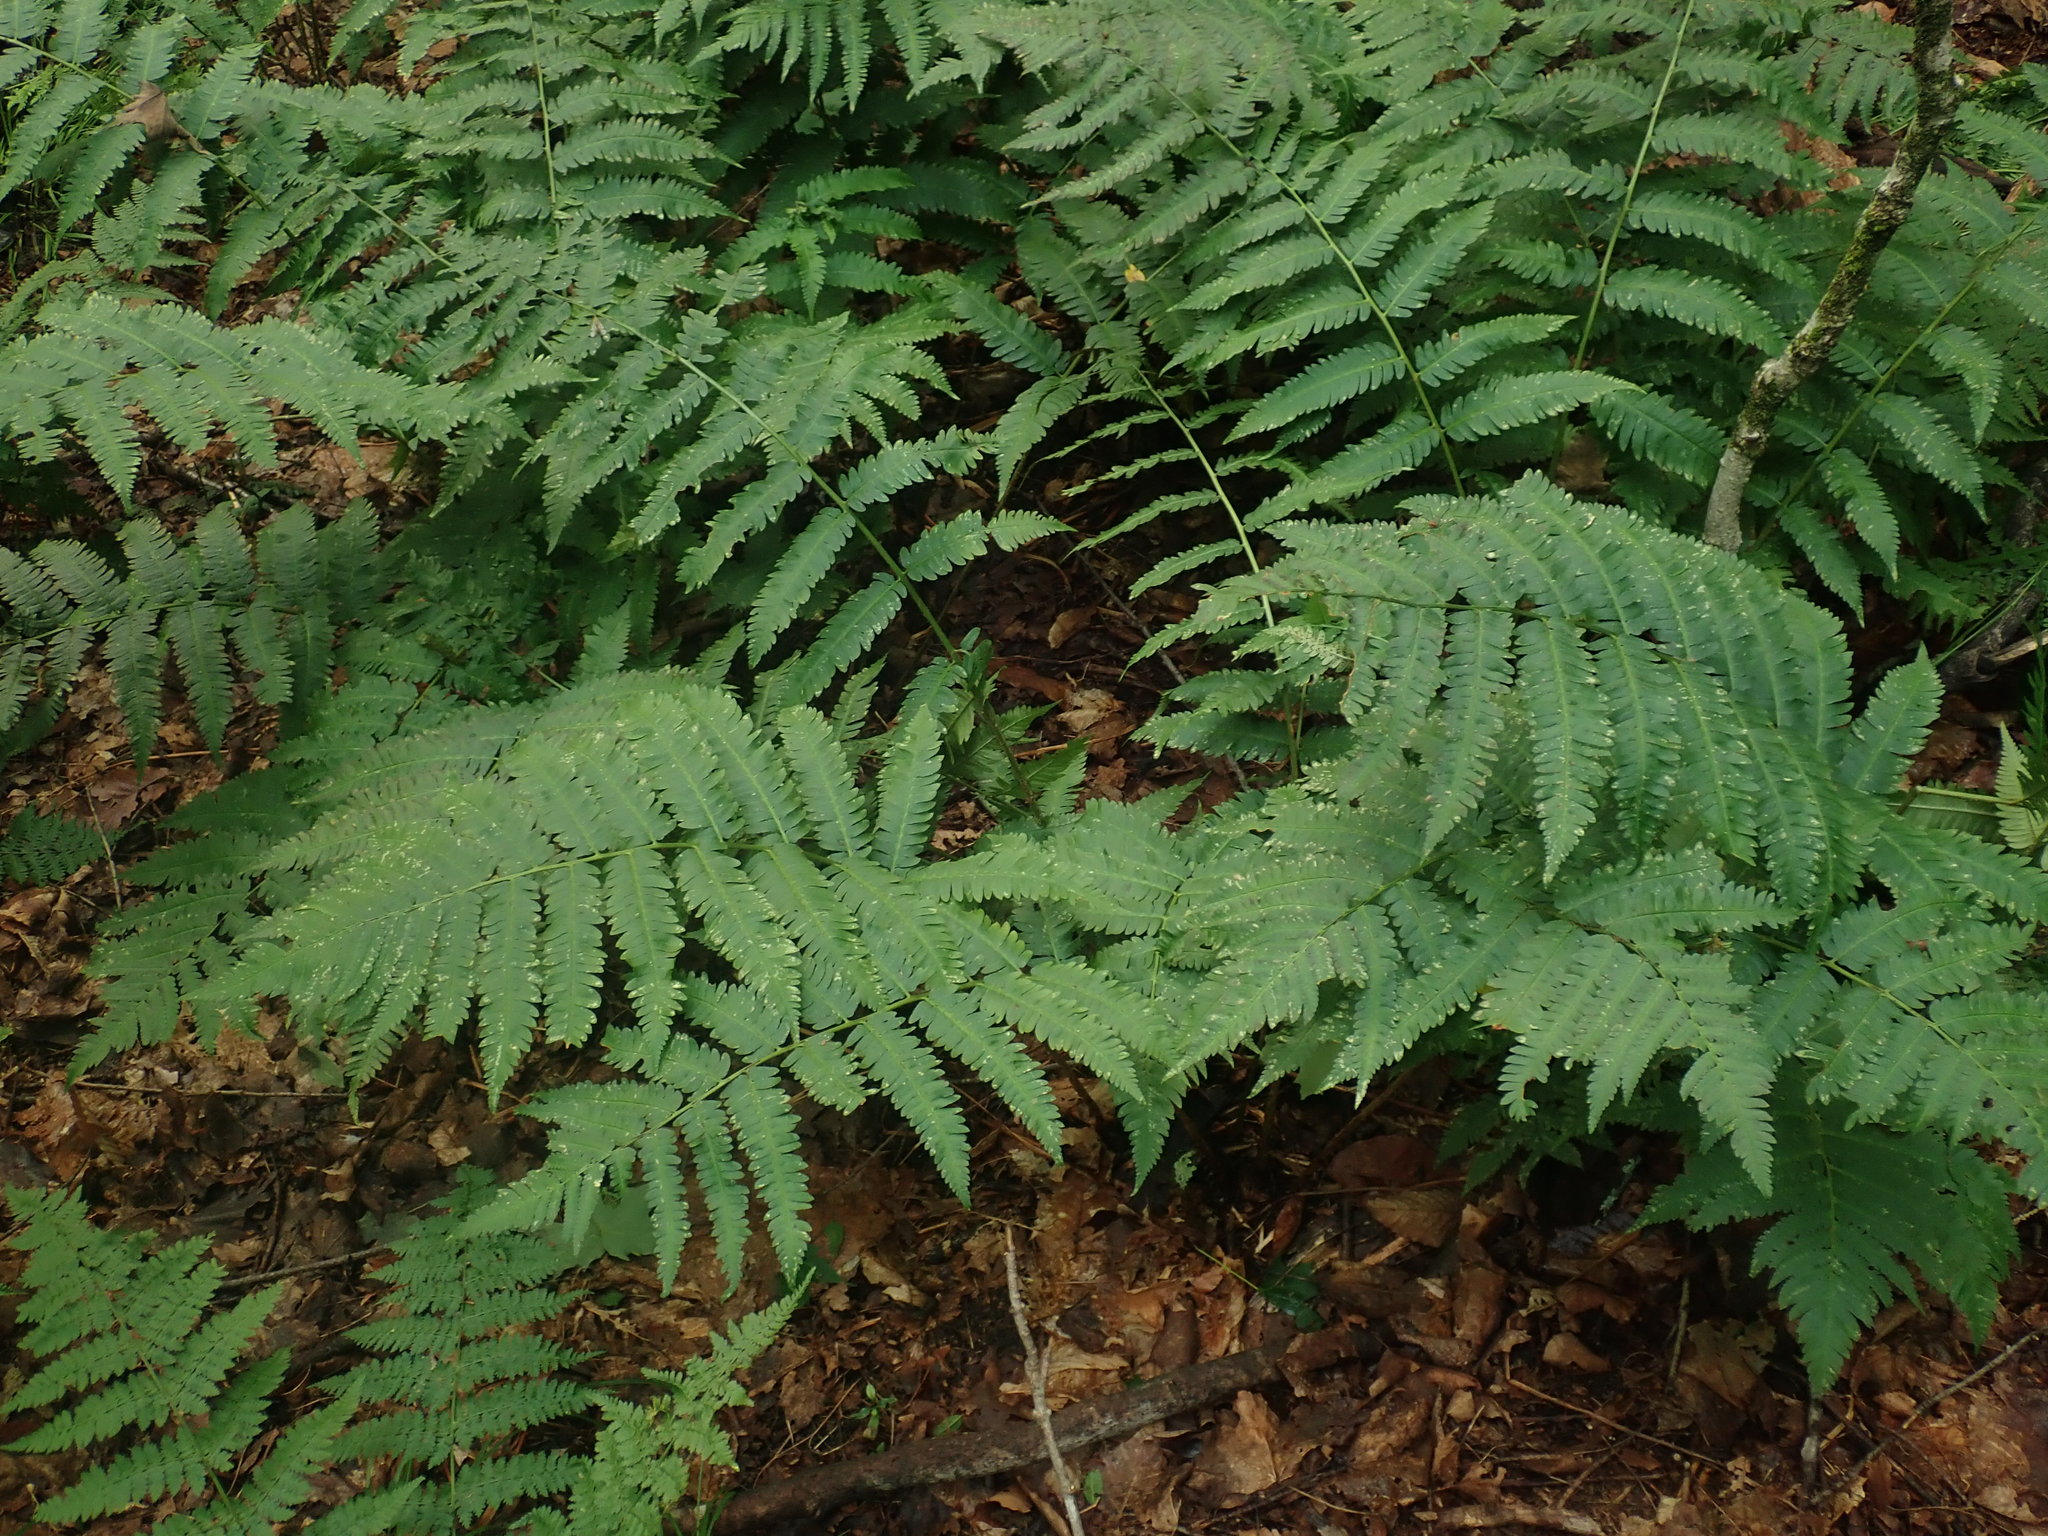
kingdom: Plantae
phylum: Tracheophyta
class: Polypodiopsida
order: Polypodiales
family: Dryopteridaceae
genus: Dryopteris
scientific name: Dryopteris goldieana
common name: Goldie's fern
